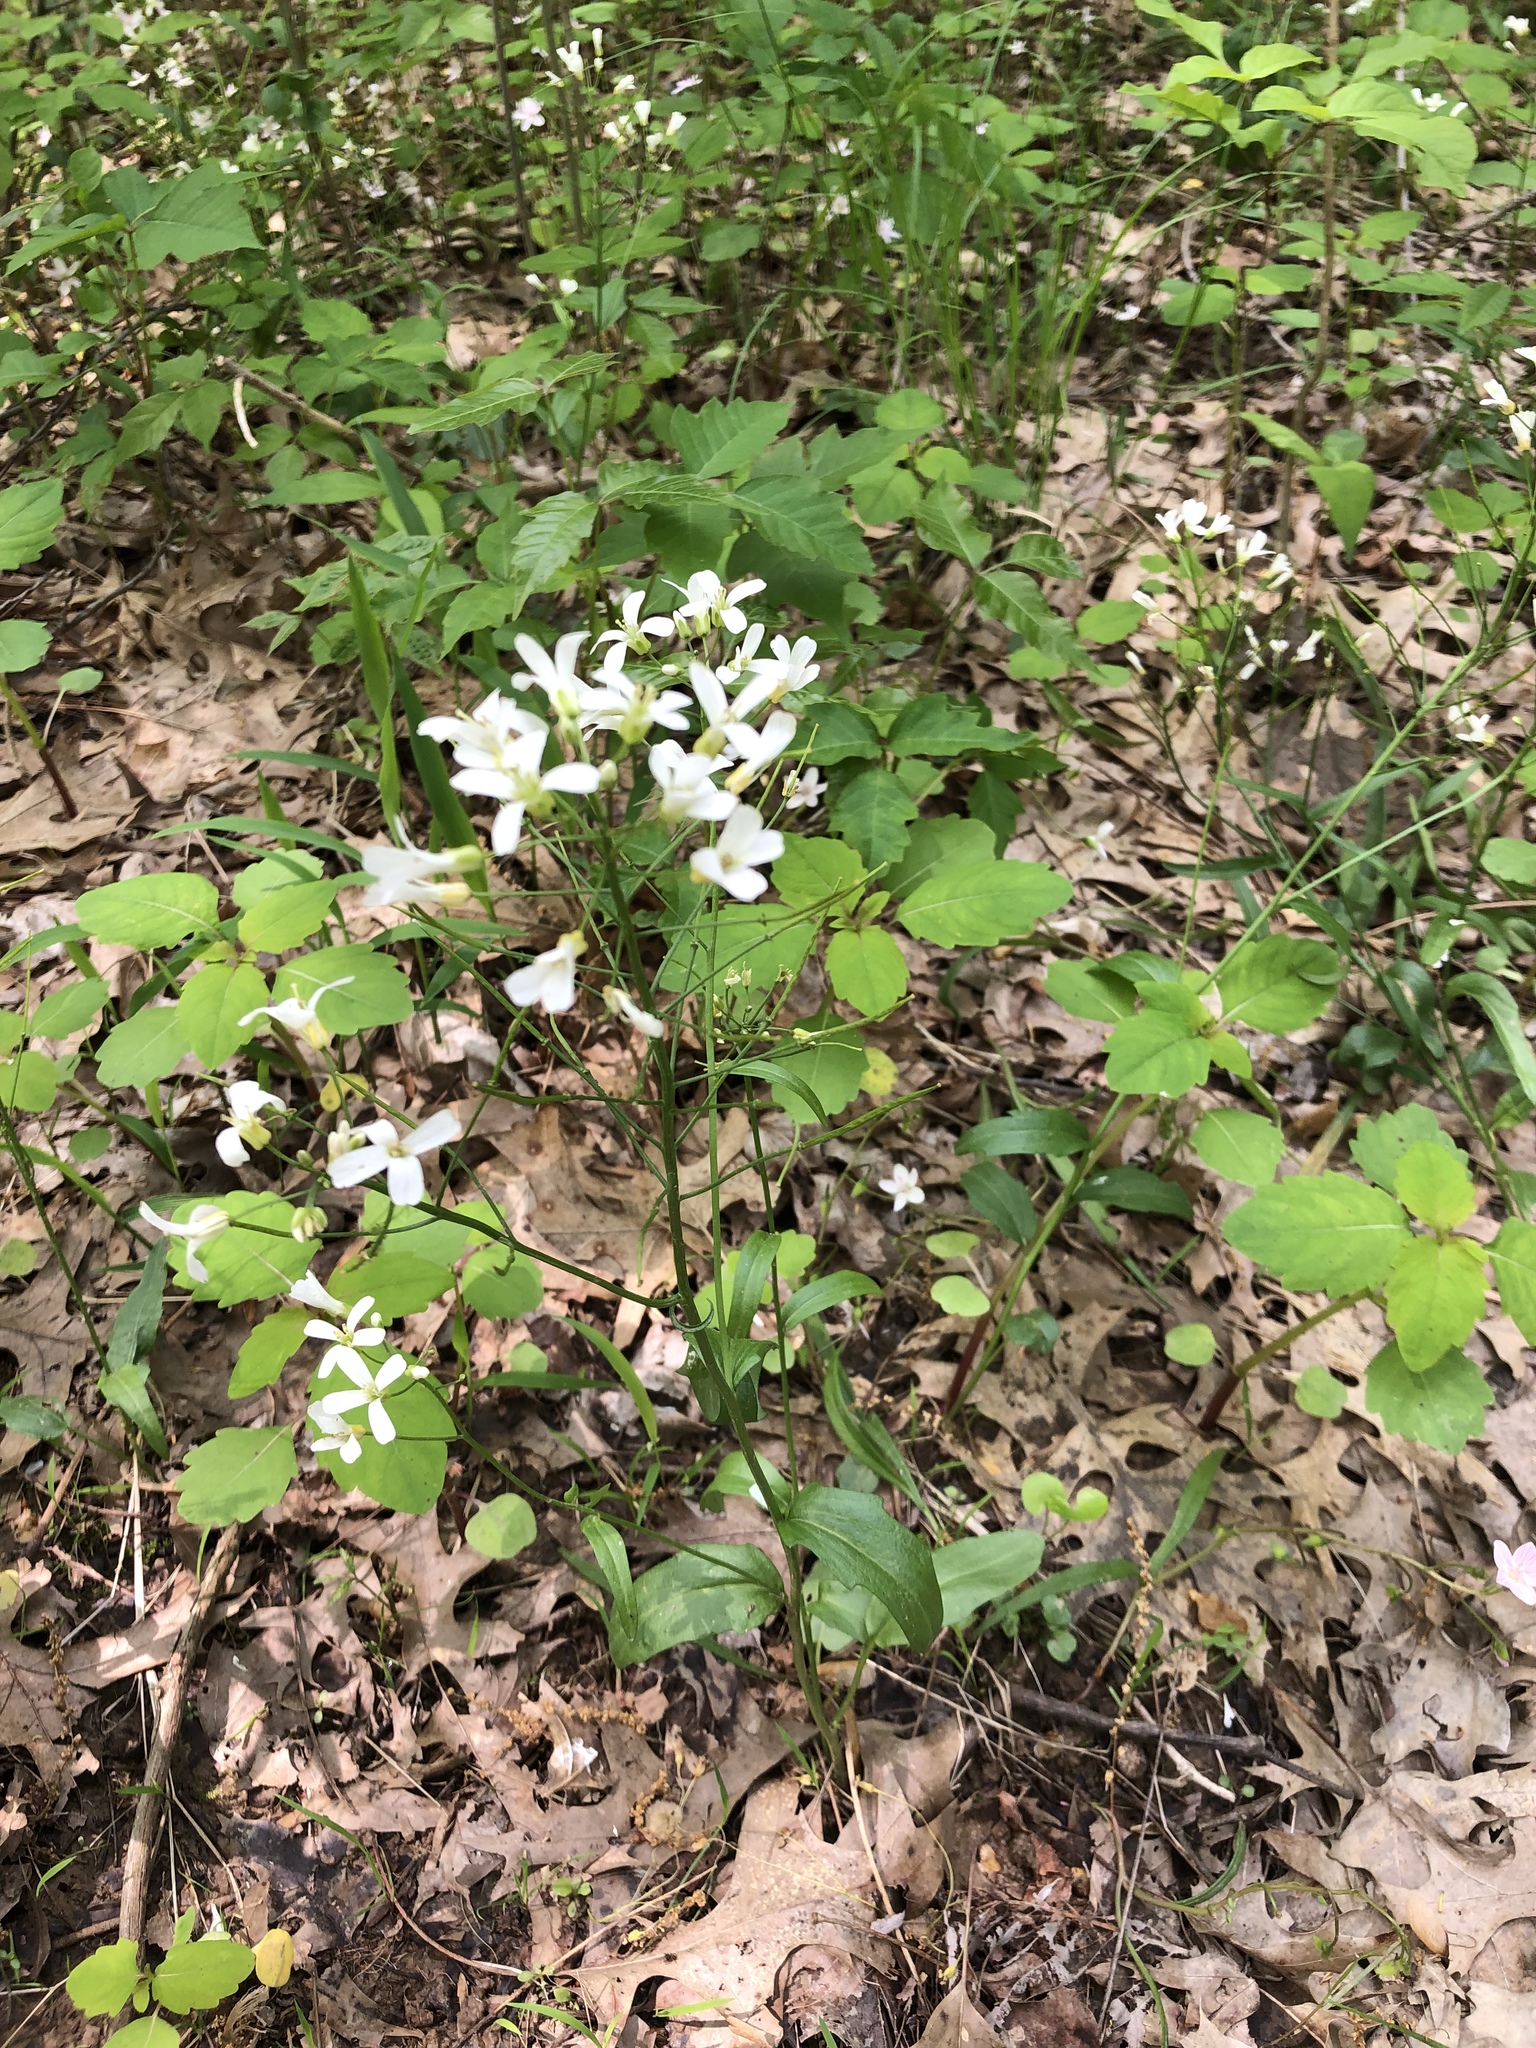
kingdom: Plantae
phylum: Tracheophyta
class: Magnoliopsida
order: Brassicales
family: Brassicaceae
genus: Cardamine
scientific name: Cardamine bulbosa
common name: Spring cress
